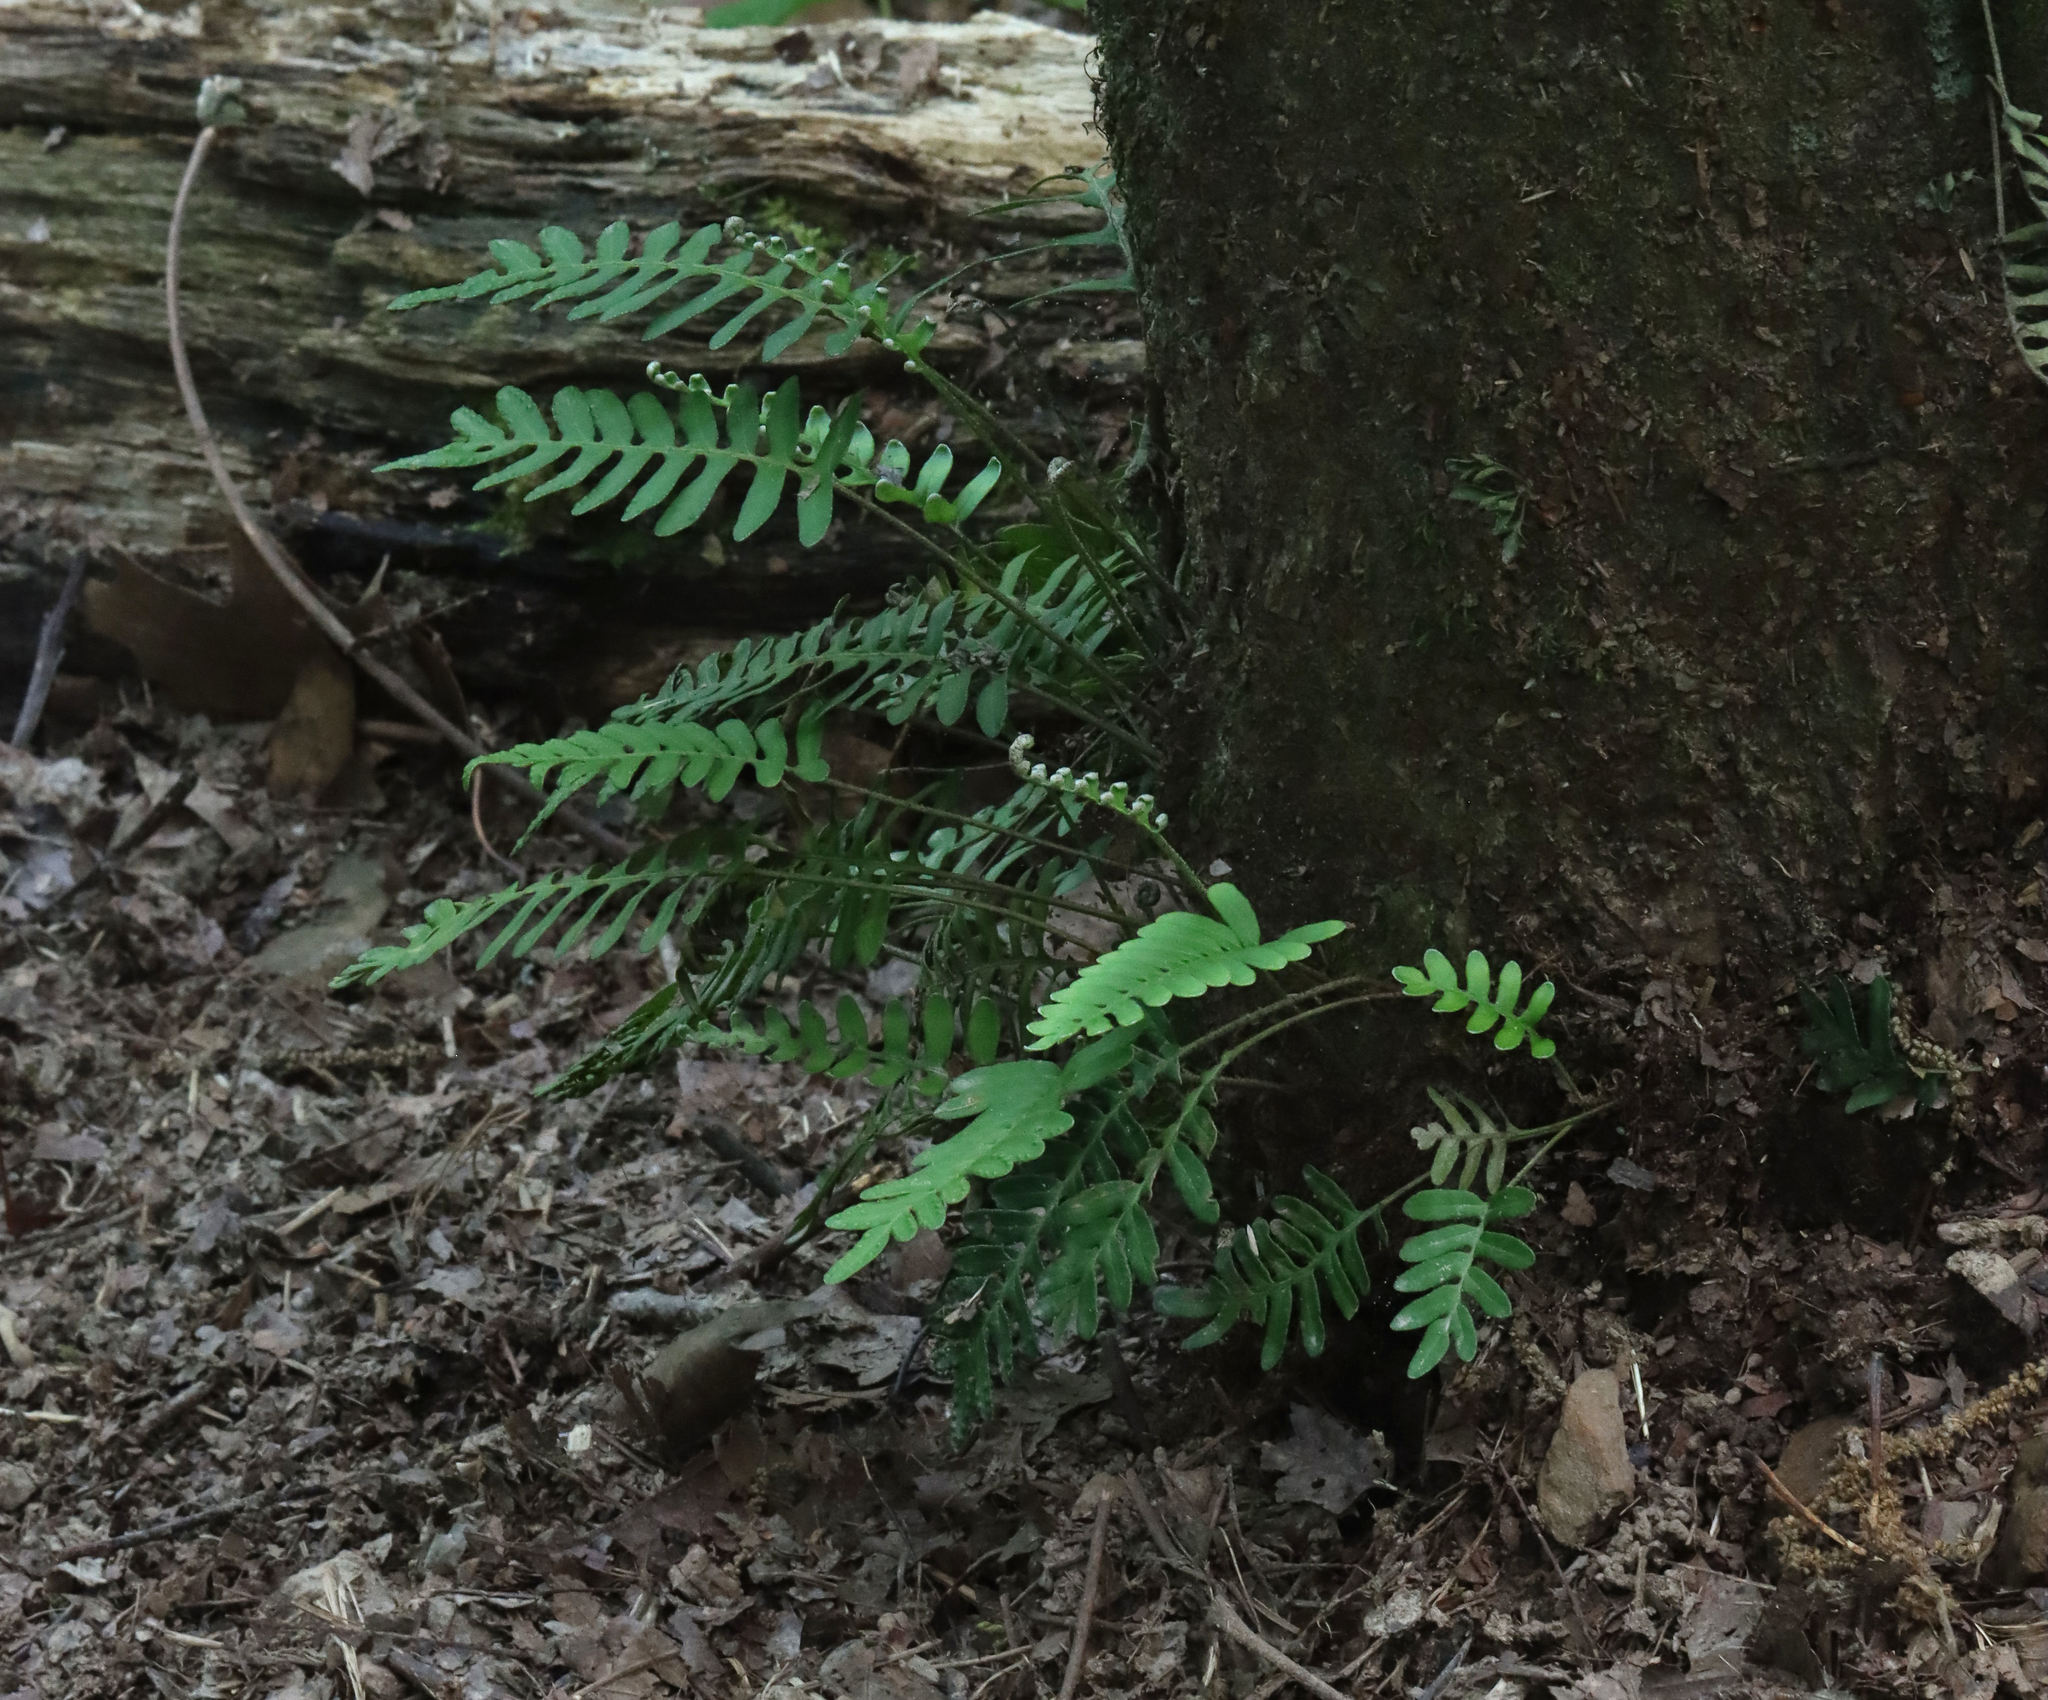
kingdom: Plantae
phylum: Tracheophyta
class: Polypodiopsida
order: Polypodiales
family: Polypodiaceae
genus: Pleopeltis
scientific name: Pleopeltis michauxiana
